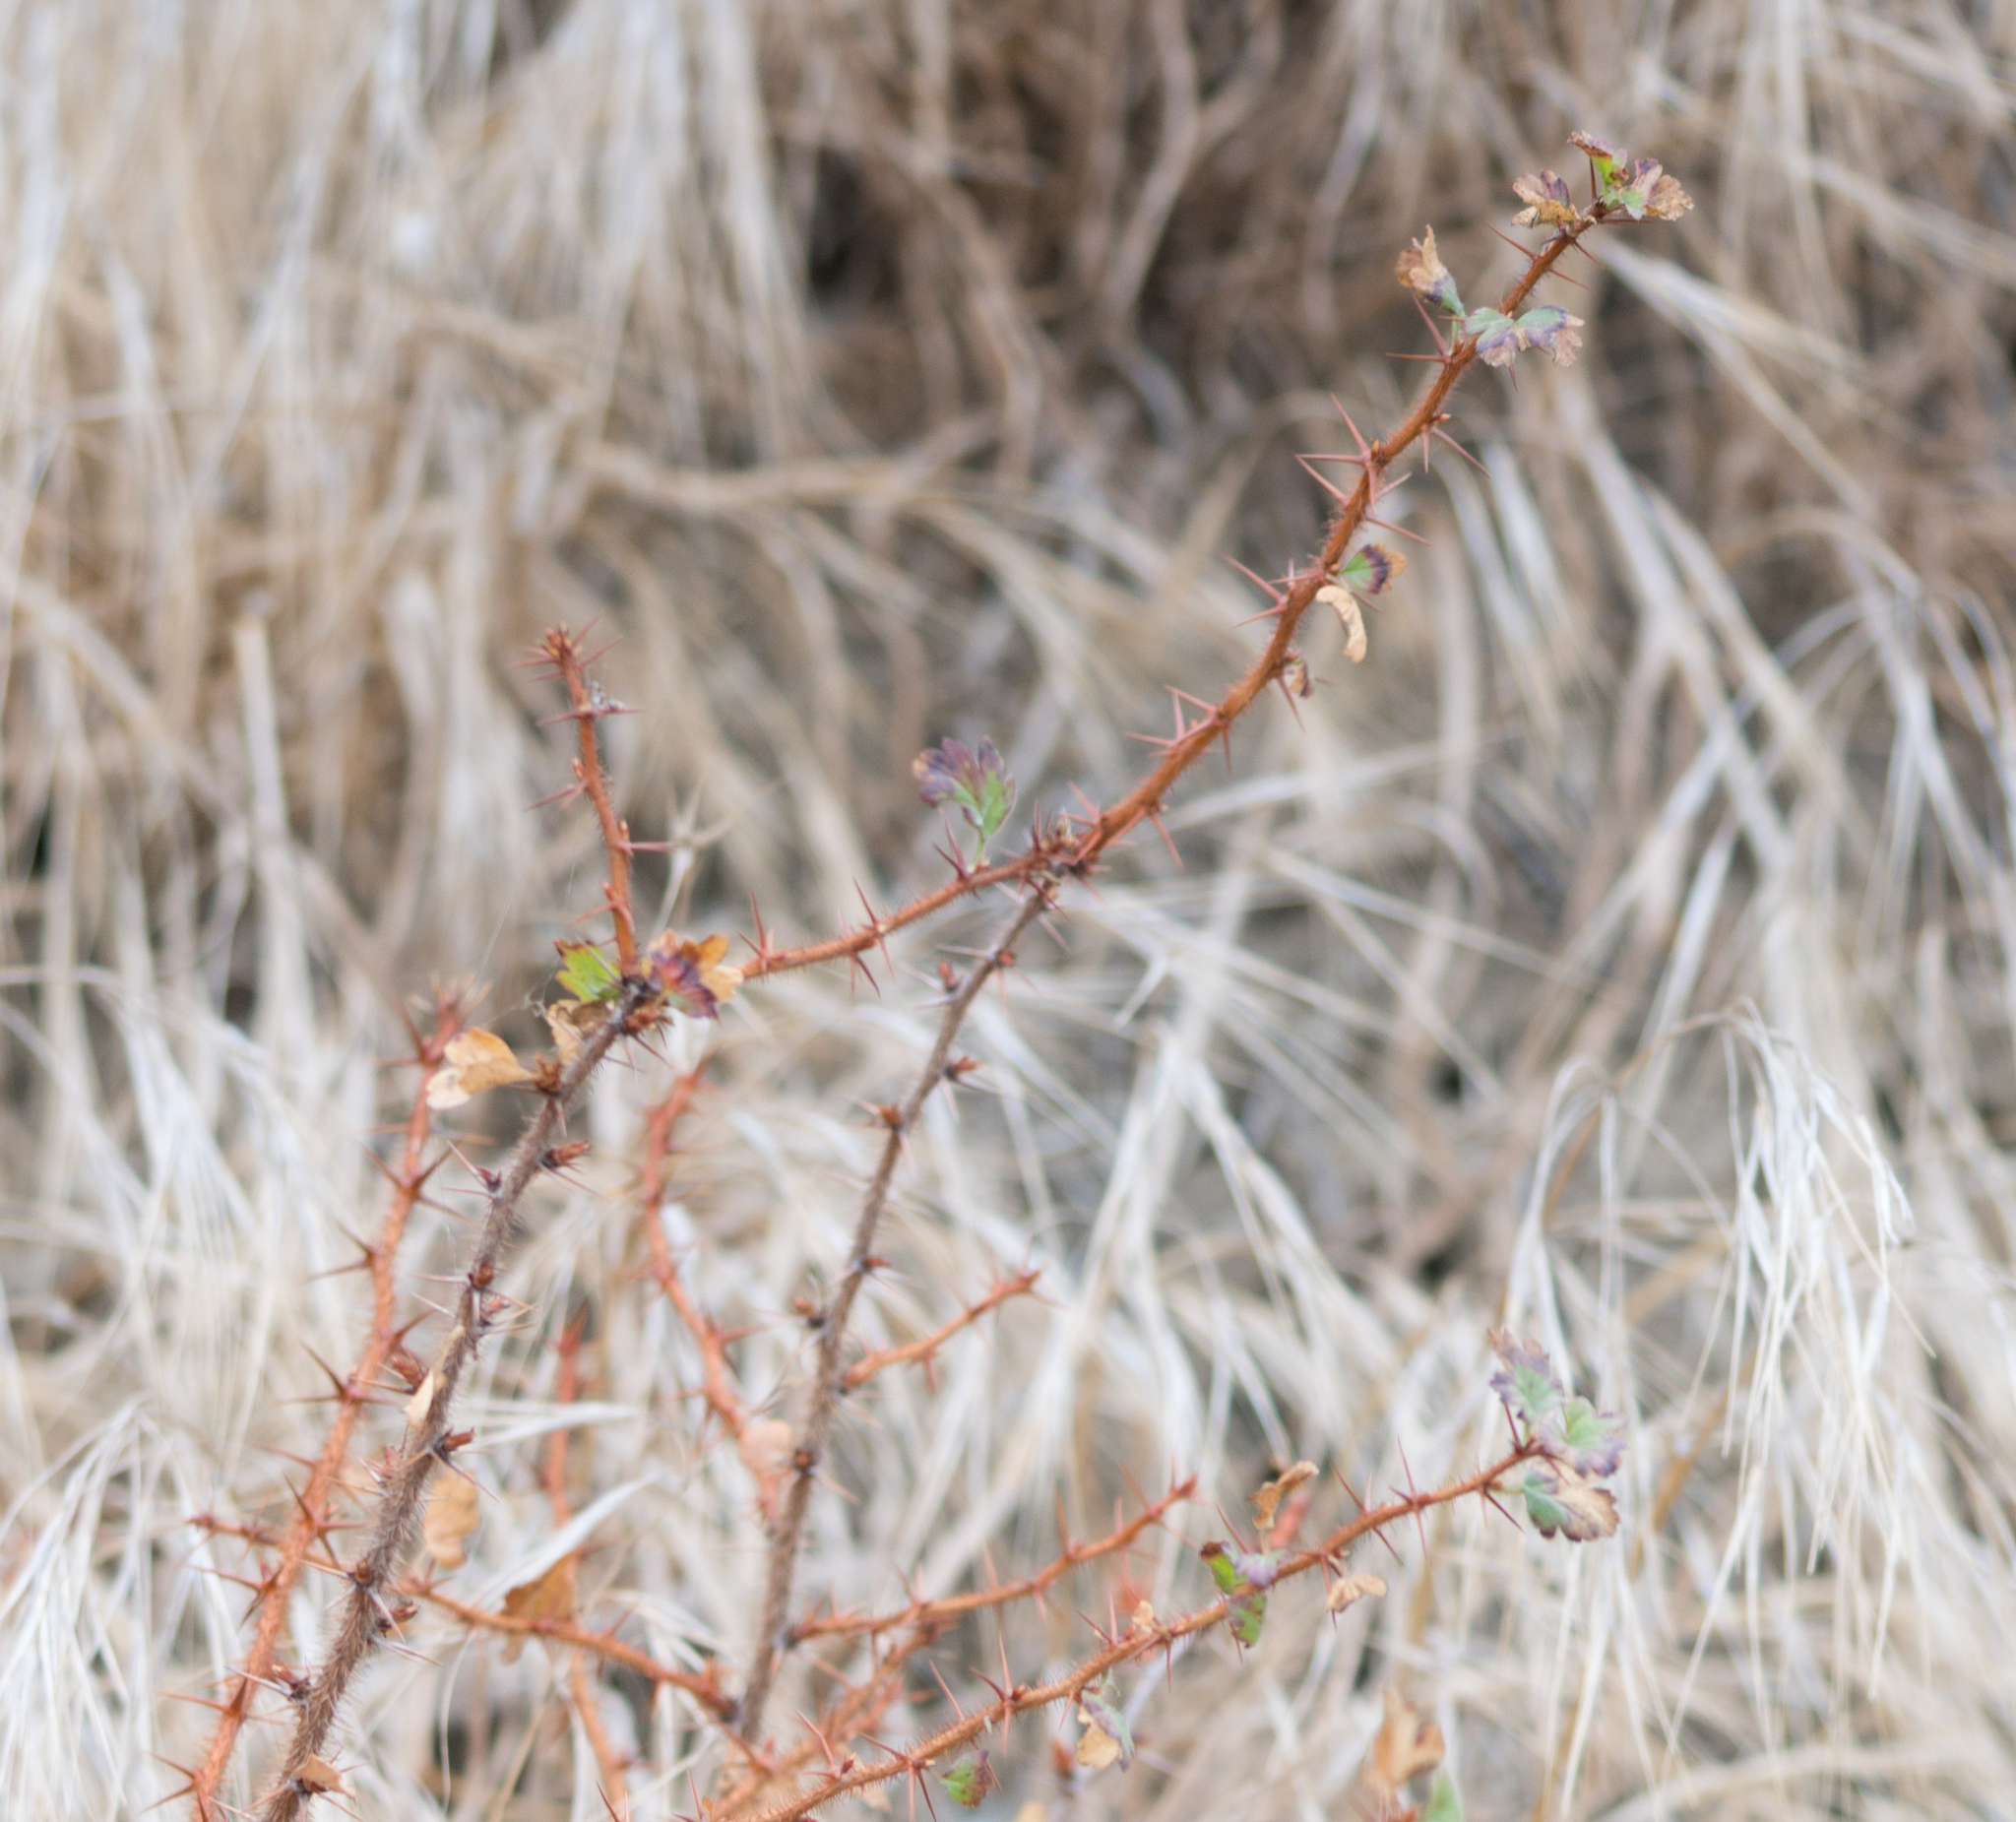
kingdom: Plantae
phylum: Tracheophyta
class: Magnoliopsida
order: Saxifragales
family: Grossulariaceae
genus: Ribes
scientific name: Ribes speciosum
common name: Fuchsia-flower gooseberry
